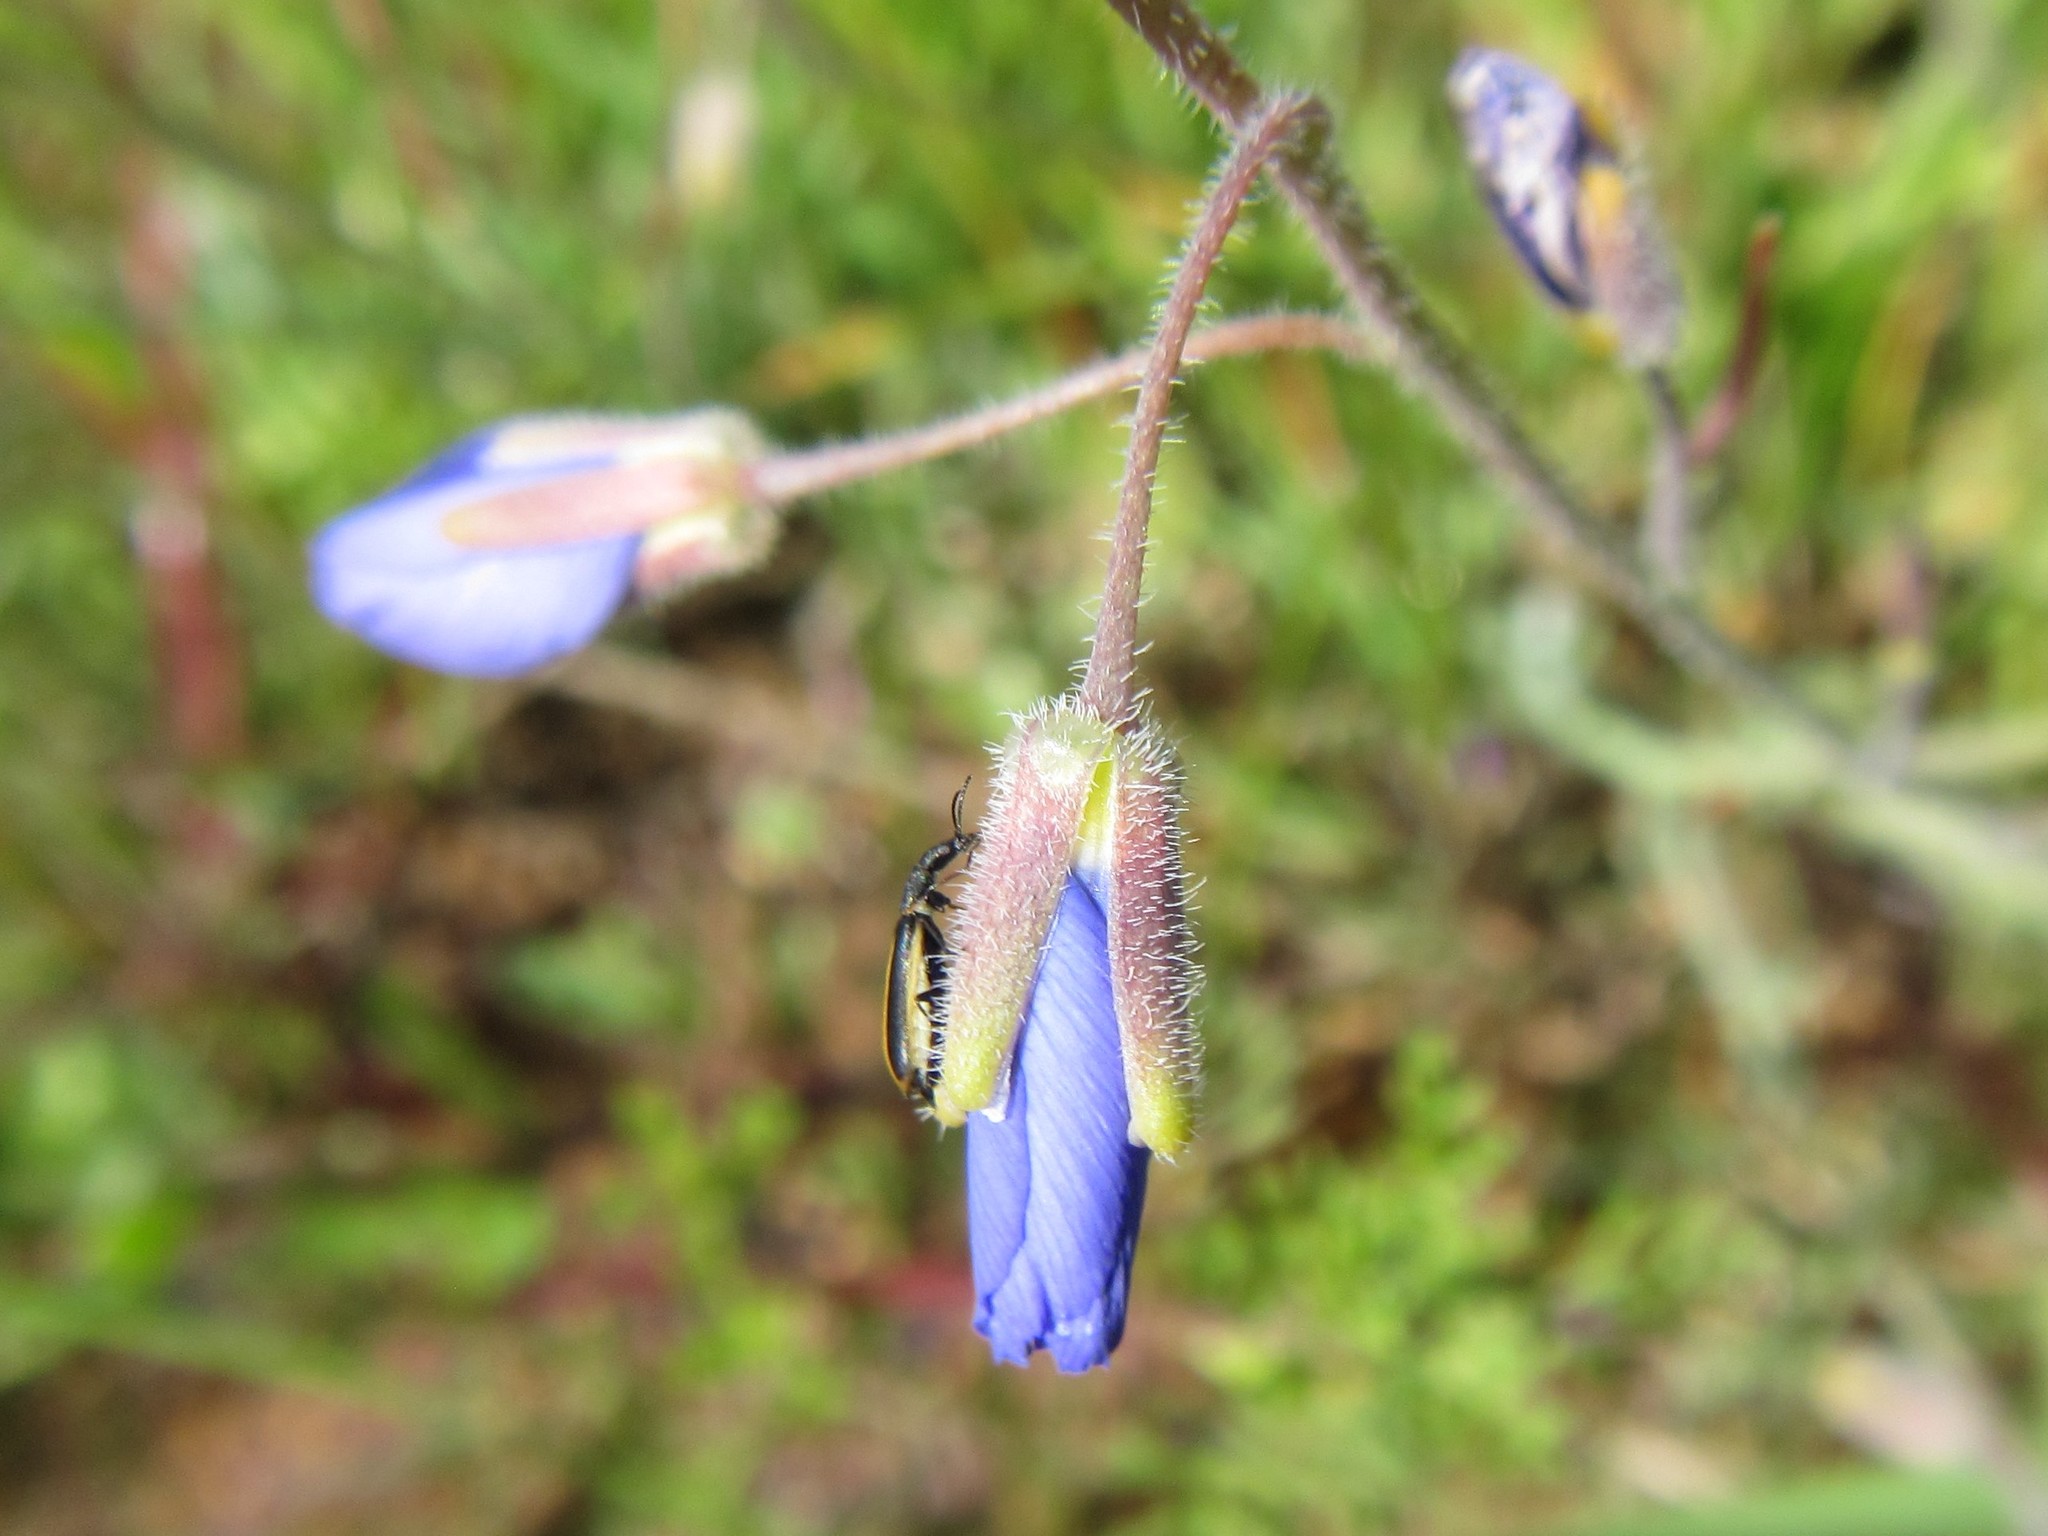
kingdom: Plantae
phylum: Tracheophyta
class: Magnoliopsida
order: Brassicales
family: Brassicaceae
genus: Heliophila
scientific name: Heliophila africana
